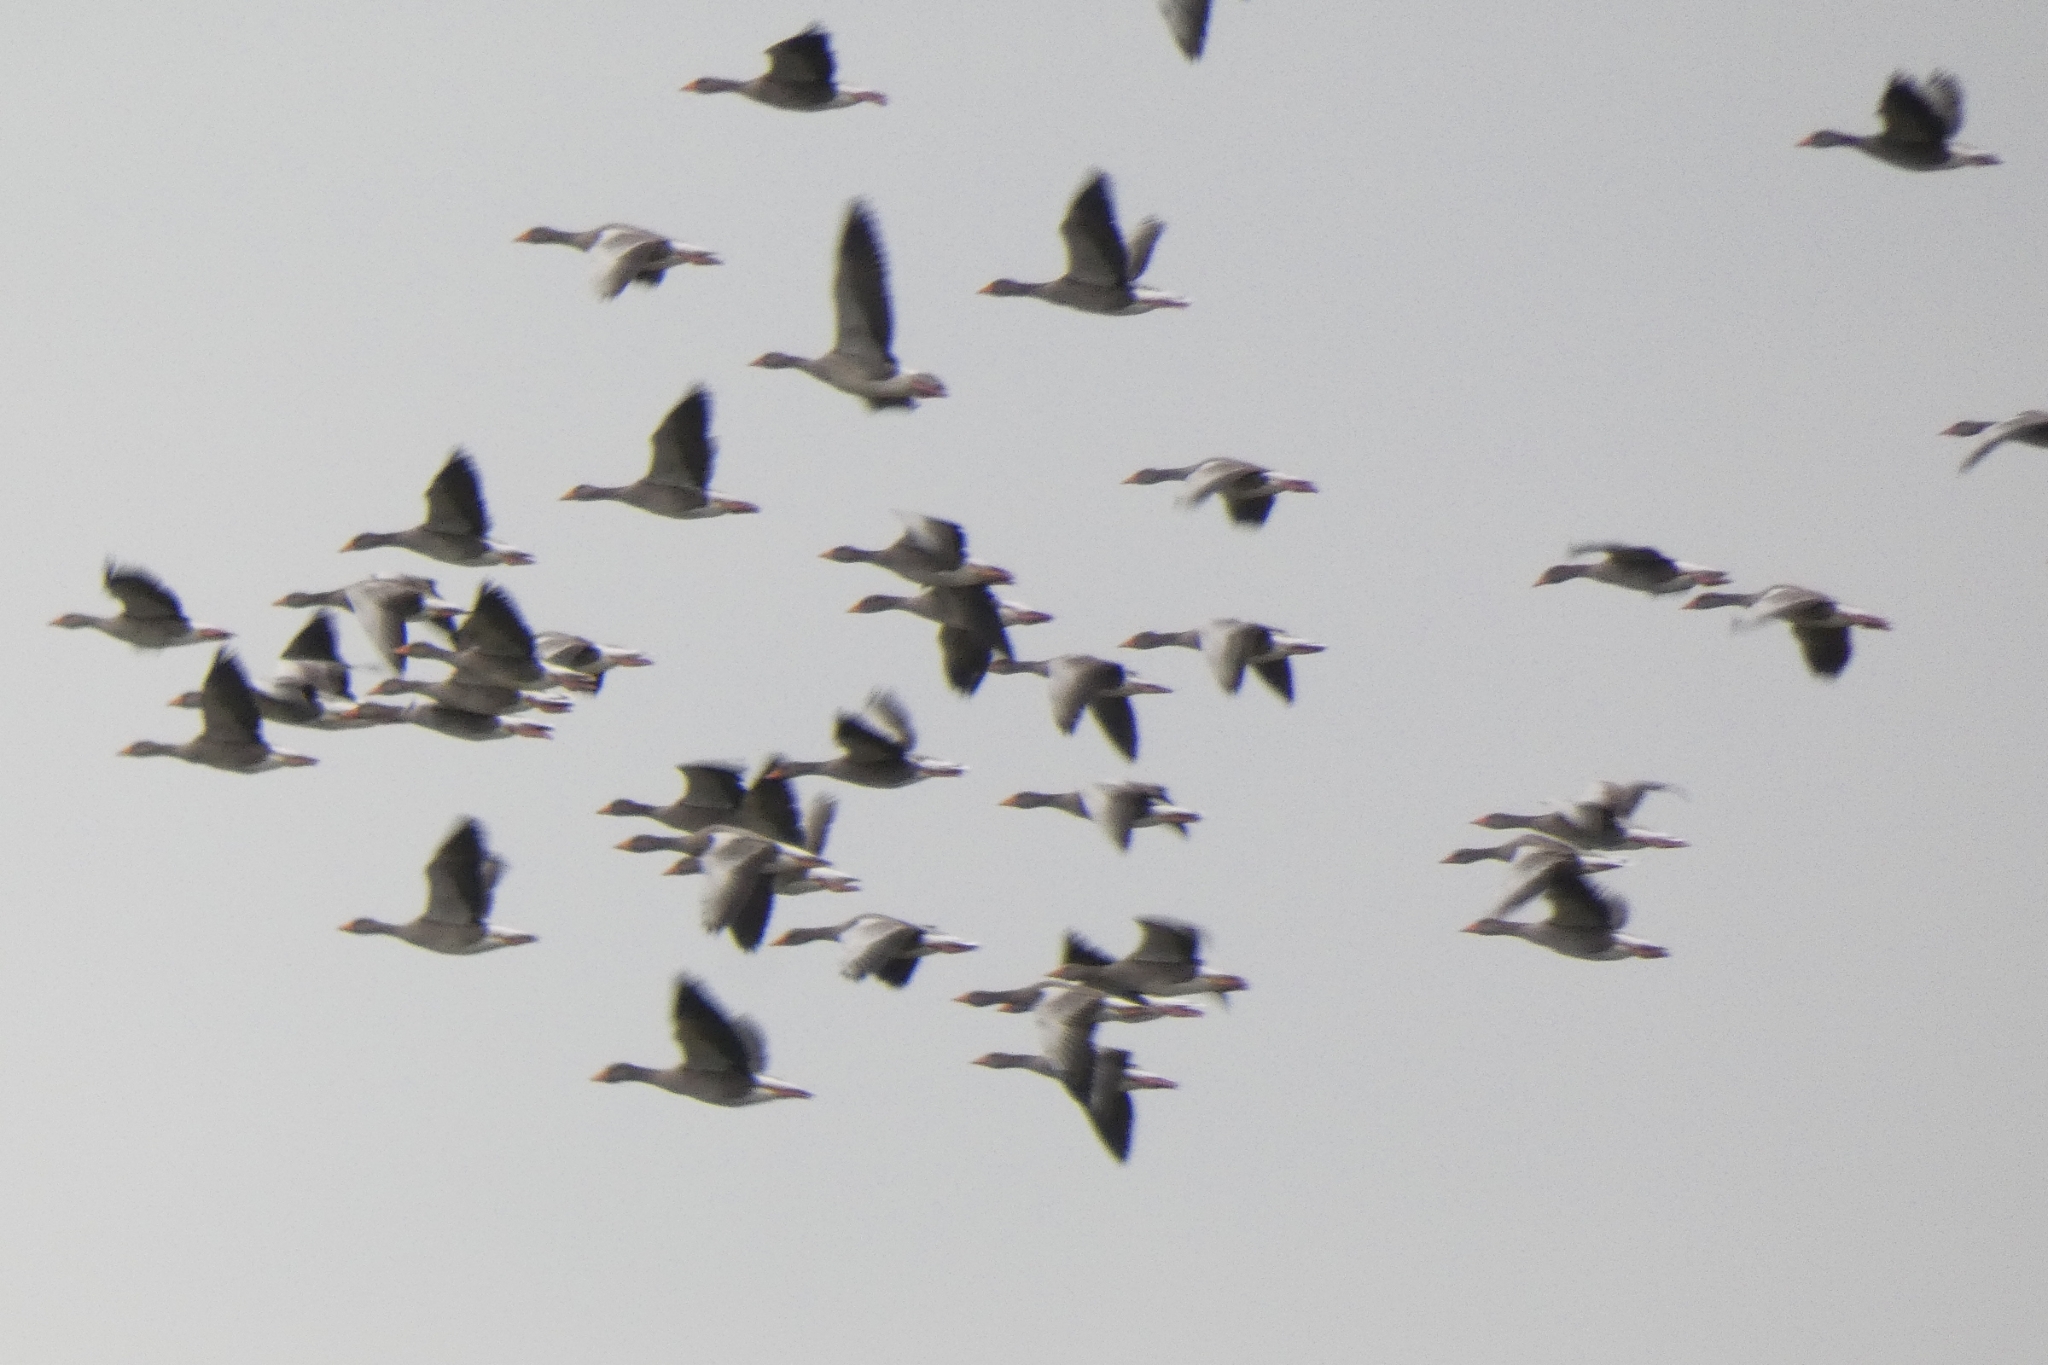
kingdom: Animalia
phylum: Chordata
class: Aves
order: Anseriformes
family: Anatidae
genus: Anser
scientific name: Anser anser
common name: Greylag goose
